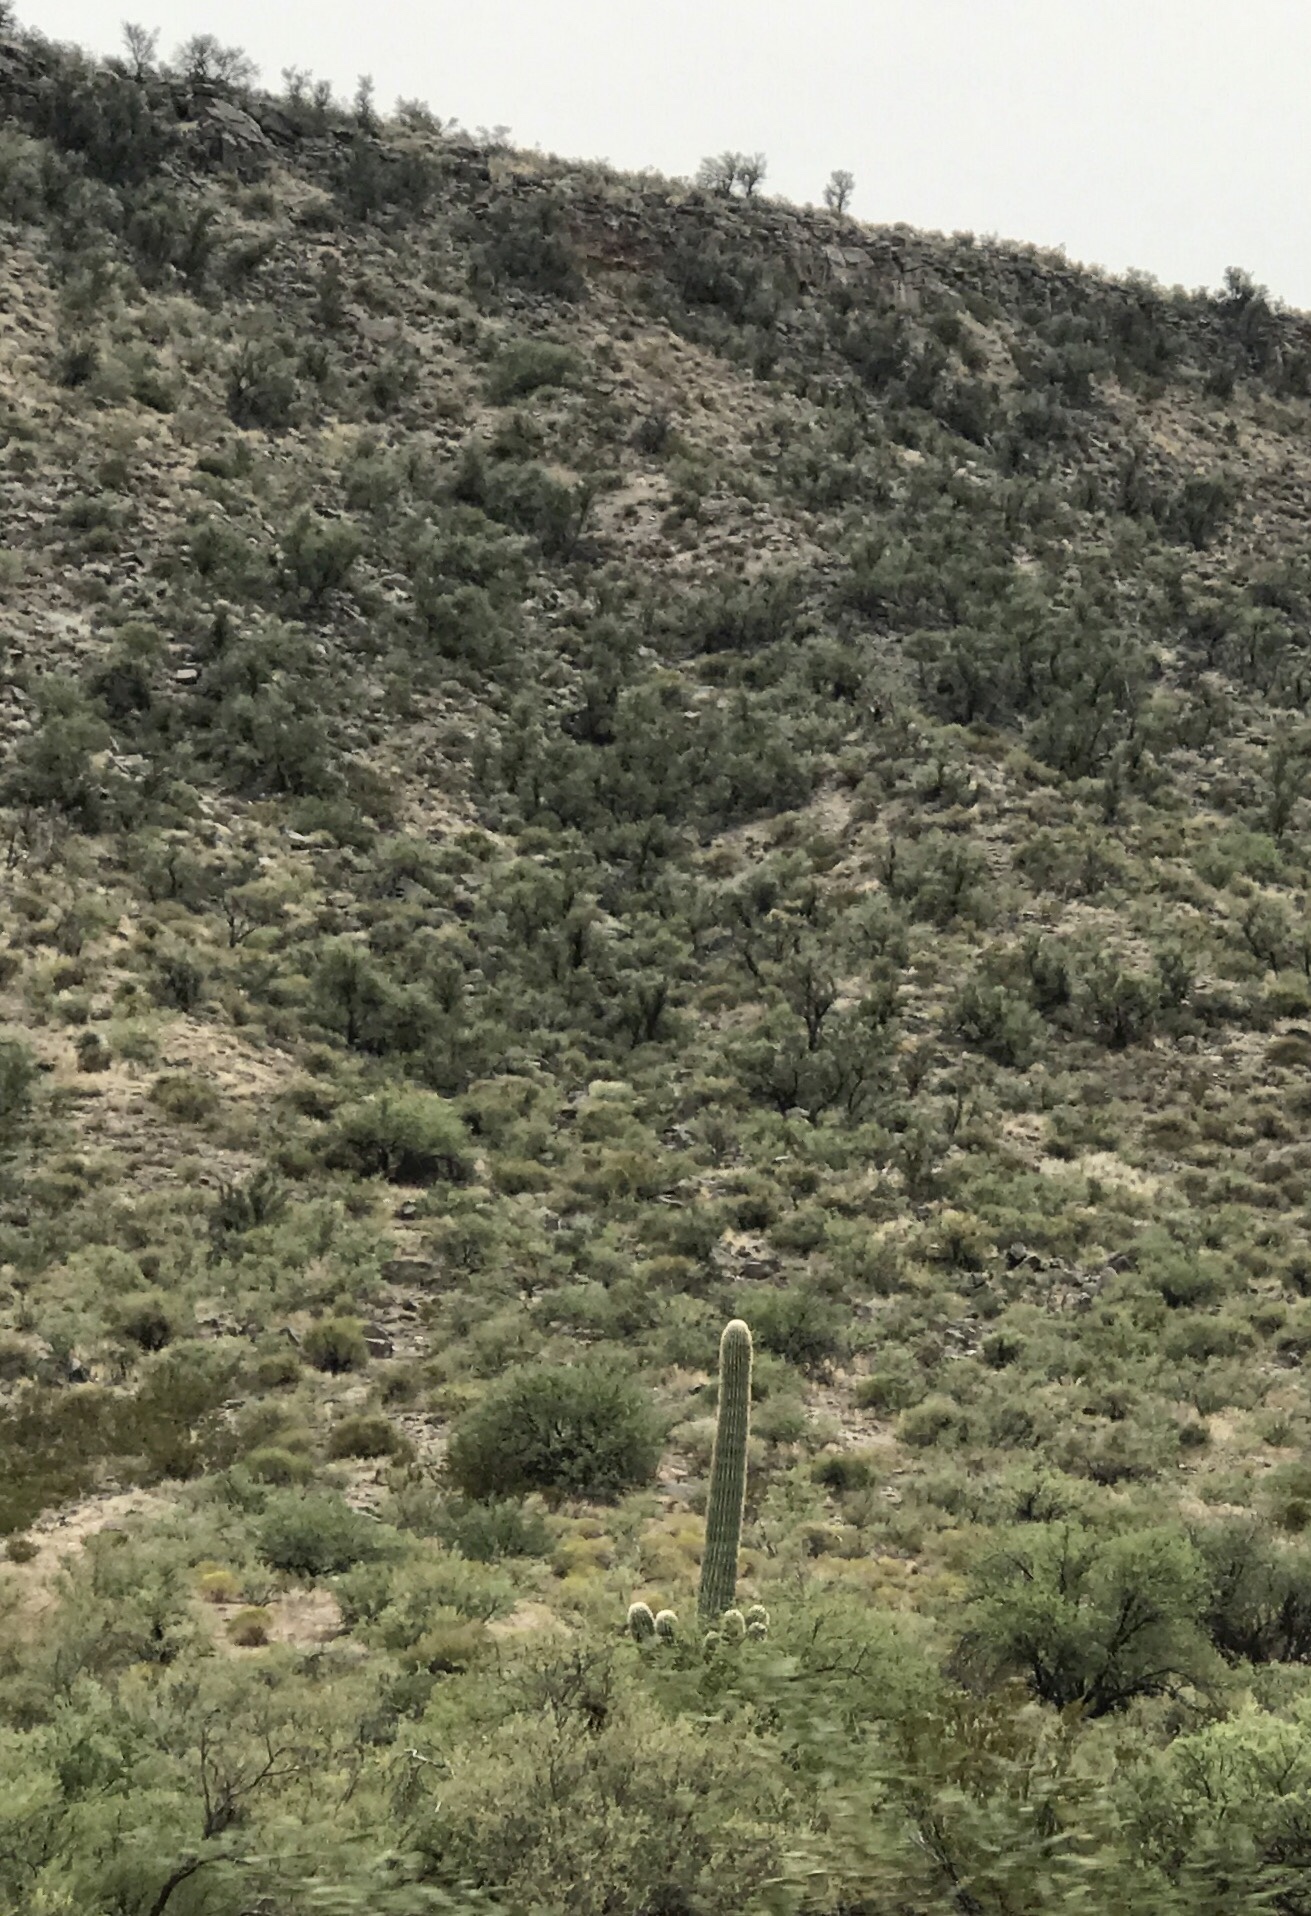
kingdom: Plantae
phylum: Tracheophyta
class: Magnoliopsida
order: Caryophyllales
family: Cactaceae
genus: Carnegiea
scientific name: Carnegiea gigantea
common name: Saguaro
